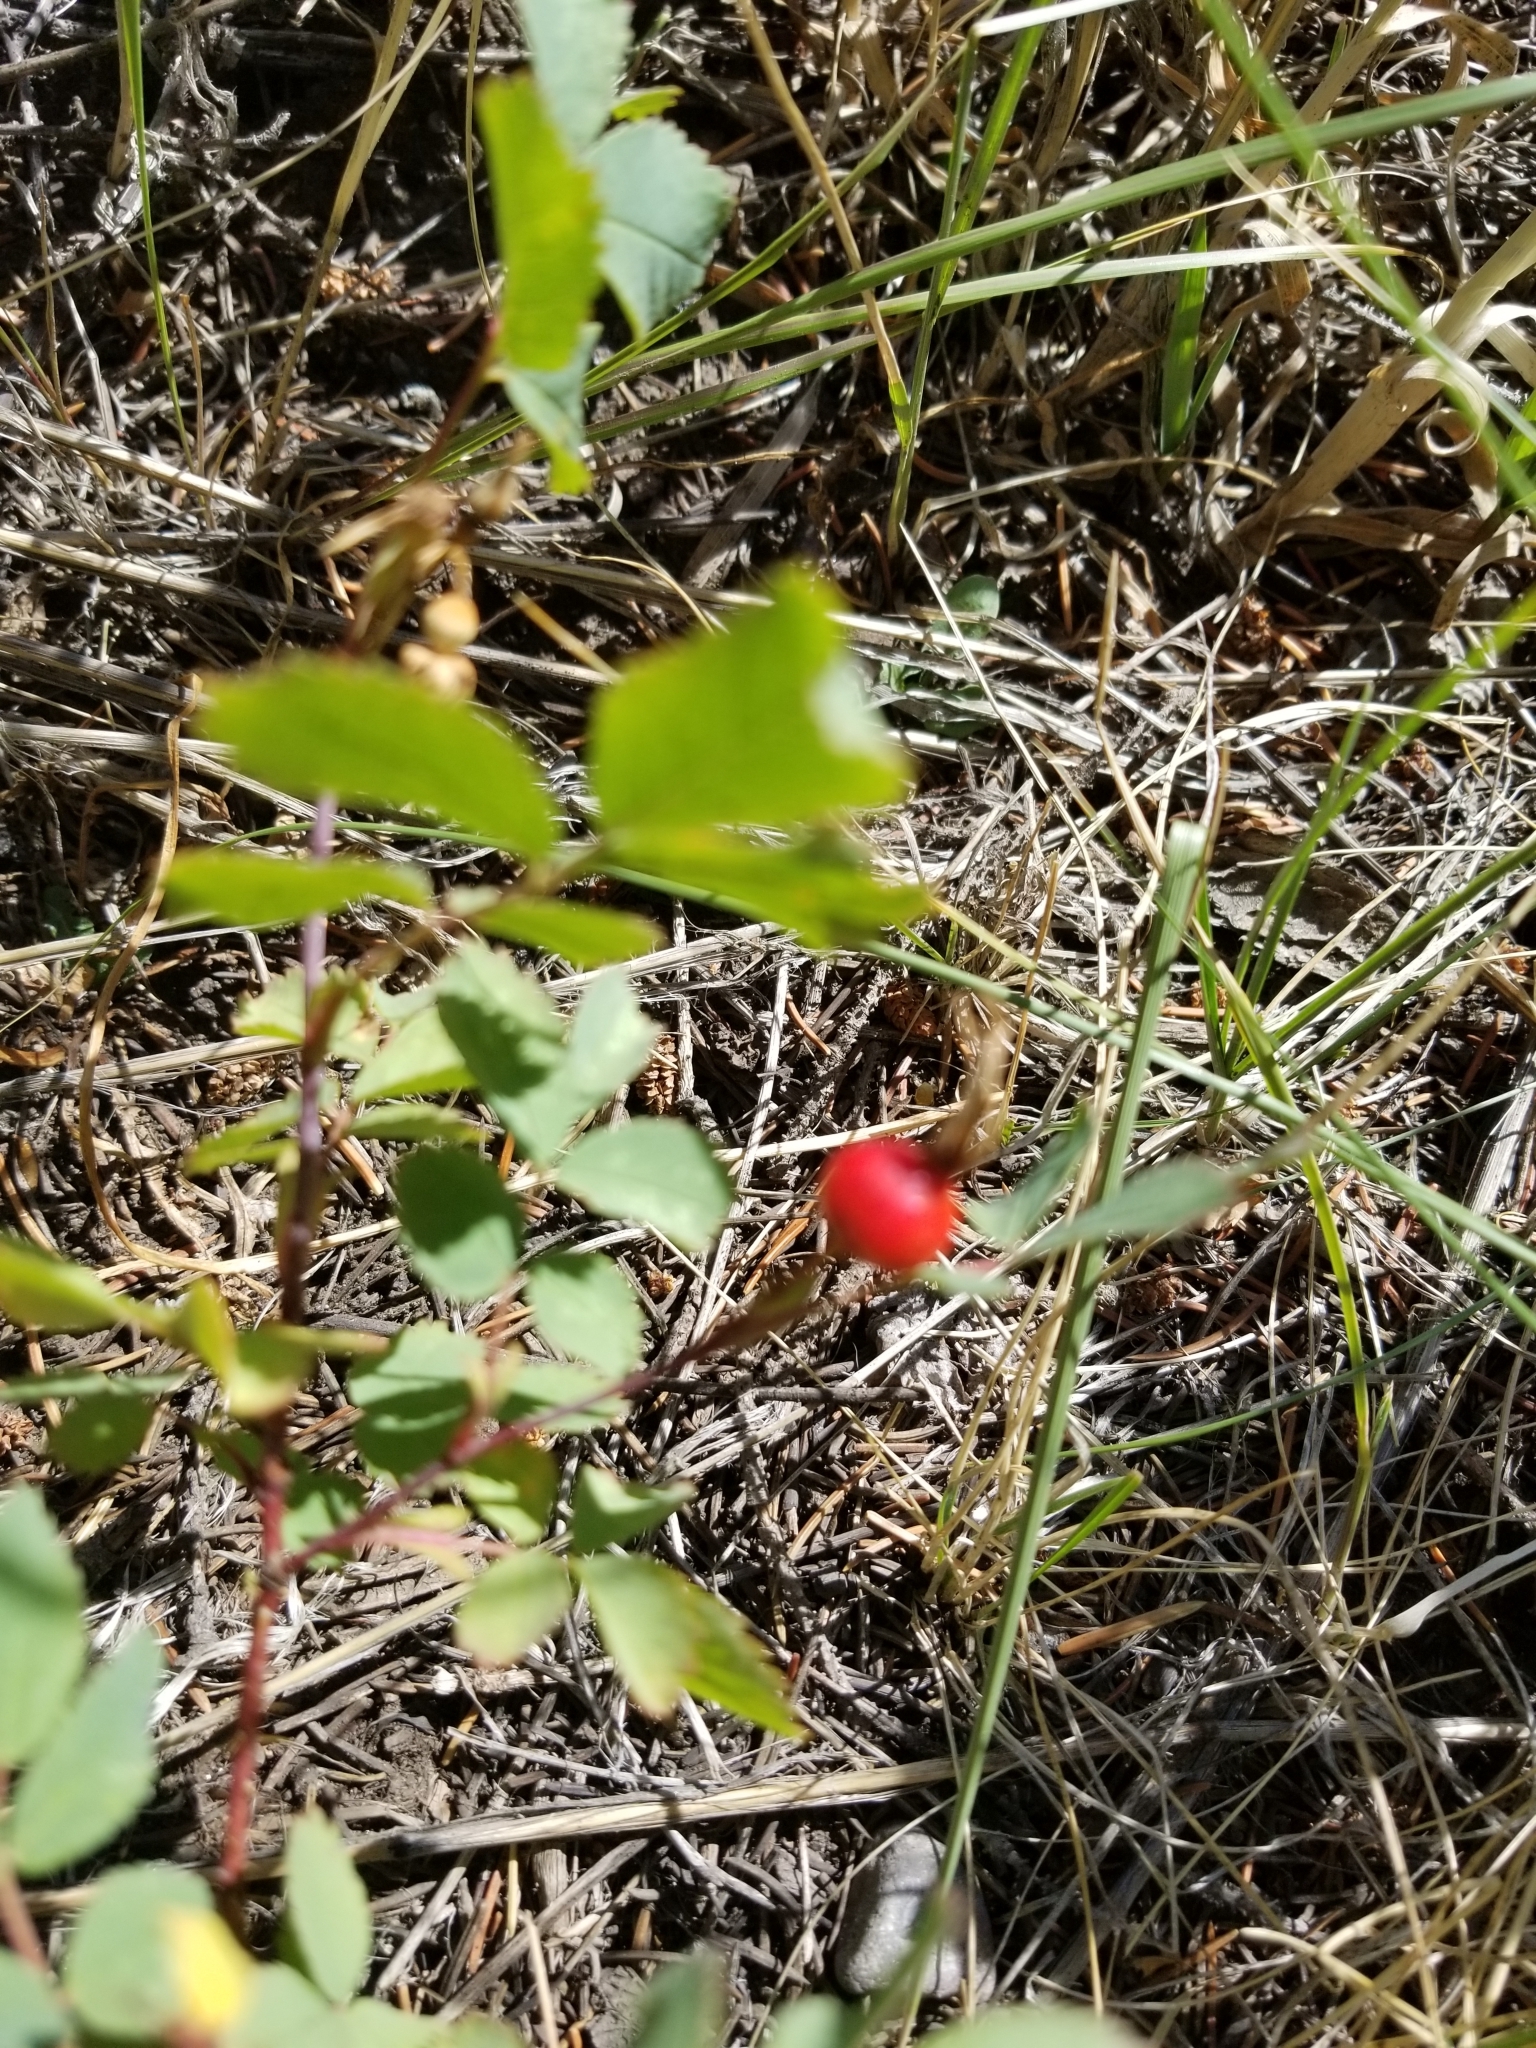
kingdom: Plantae
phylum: Tracheophyta
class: Magnoliopsida
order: Rosales
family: Rosaceae
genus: Rosa
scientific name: Rosa woodsii
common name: Woods's rose
